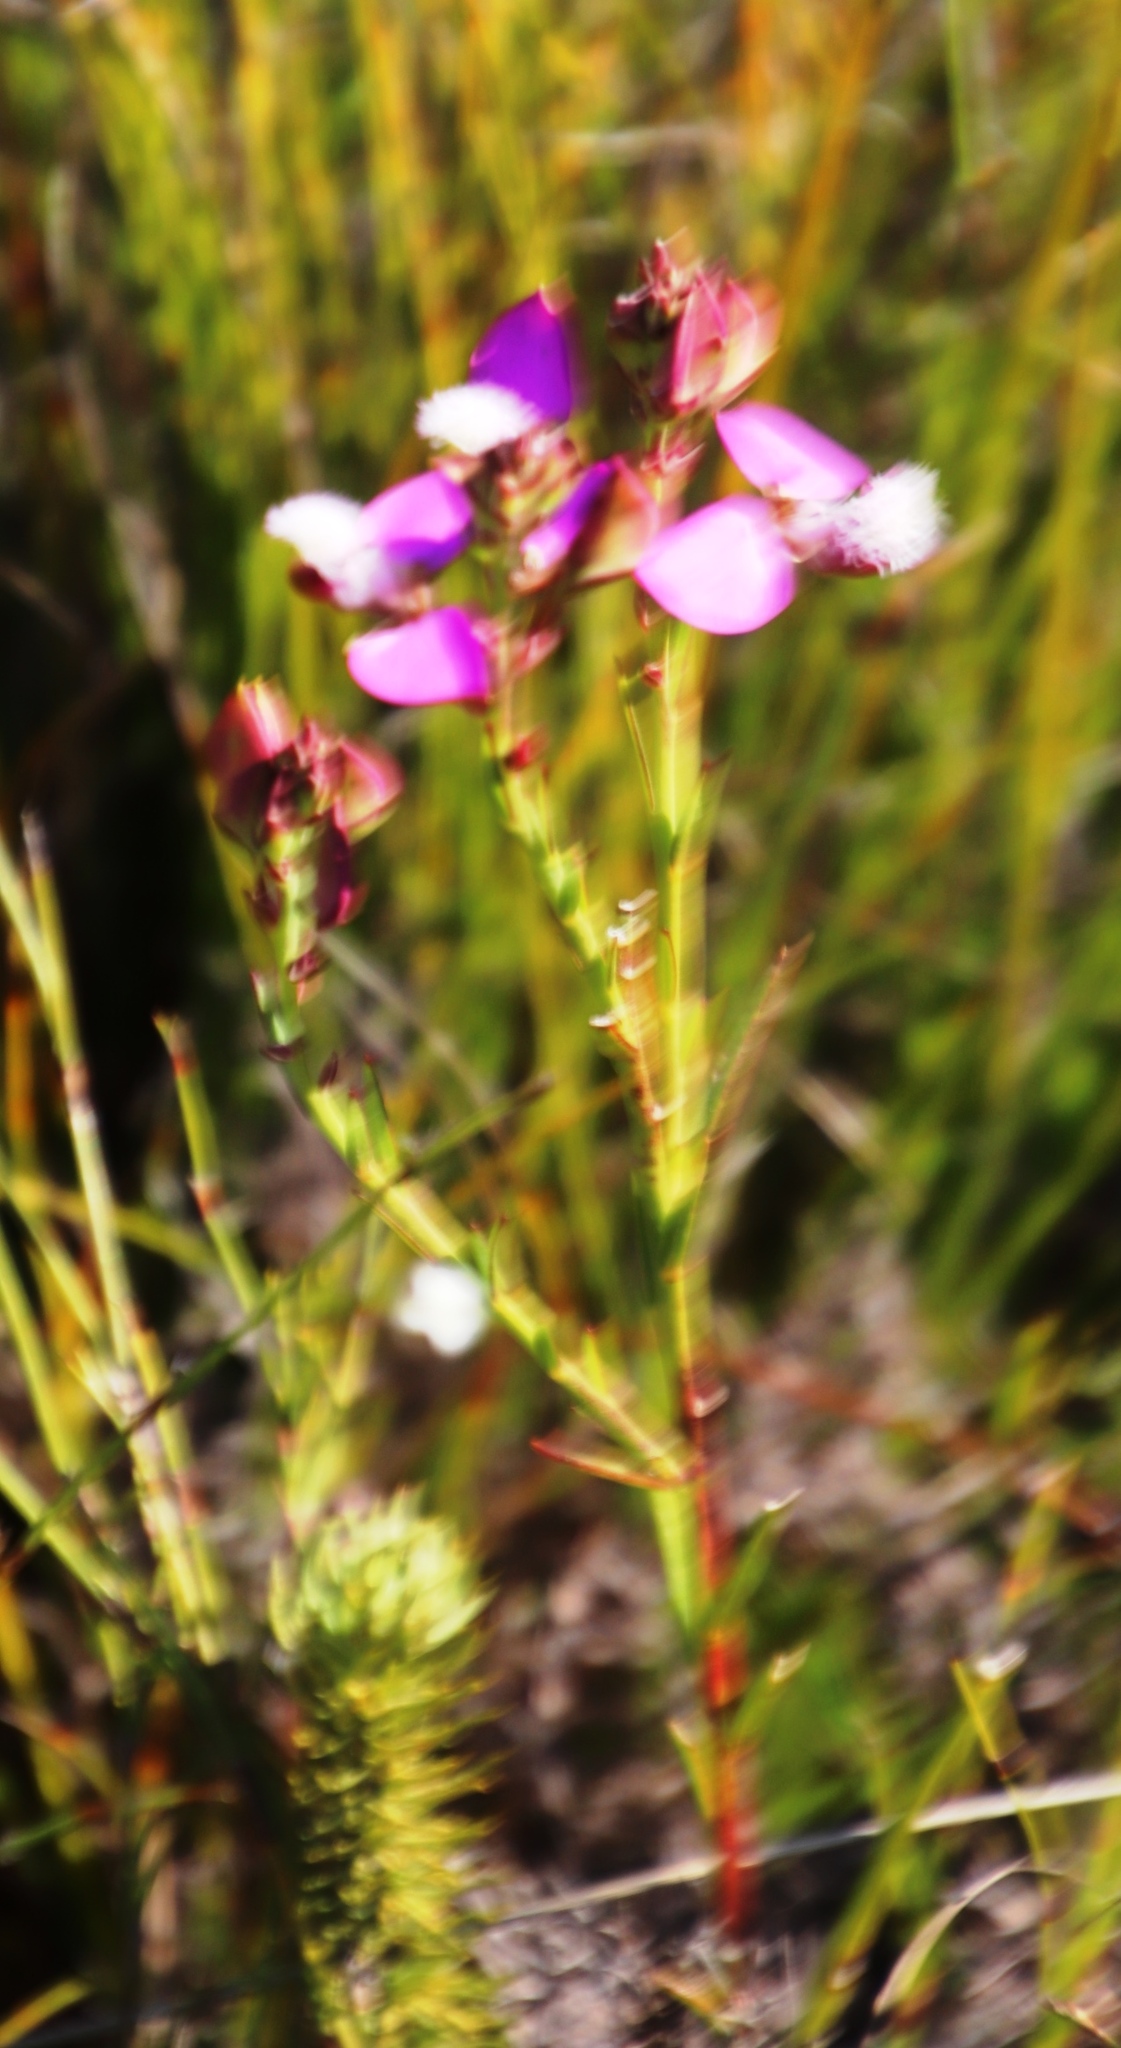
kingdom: Plantae
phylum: Tracheophyta
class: Magnoliopsida
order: Fabales
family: Polygalaceae
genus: Polygala
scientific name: Polygala bracteolata
